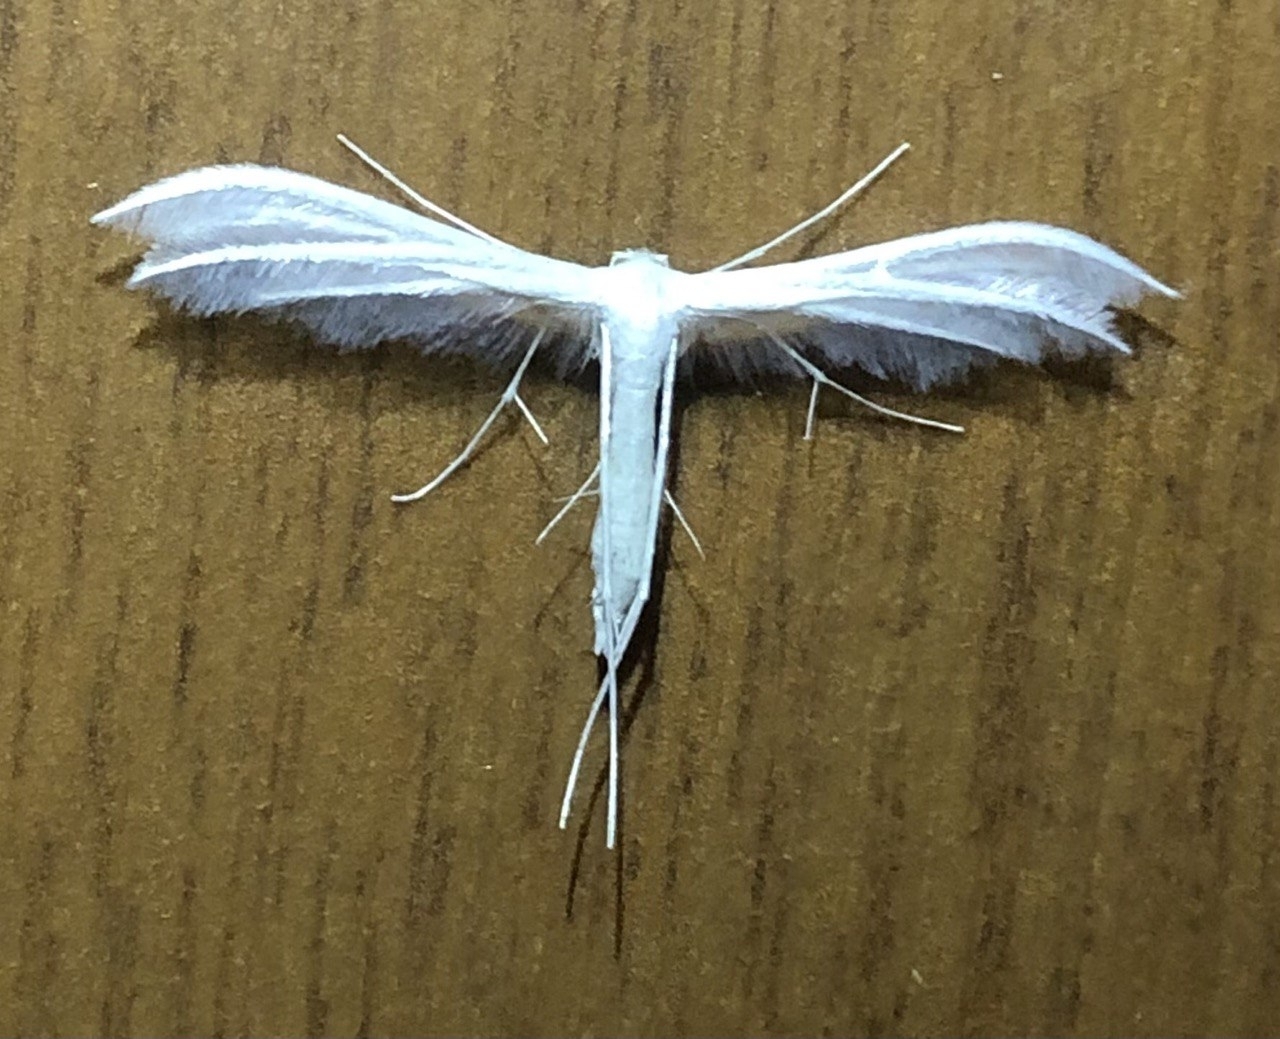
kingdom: Animalia
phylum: Arthropoda
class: Insecta
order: Lepidoptera
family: Pterophoridae
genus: Pterophorus
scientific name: Pterophorus pentadactyla
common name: White plume moth
